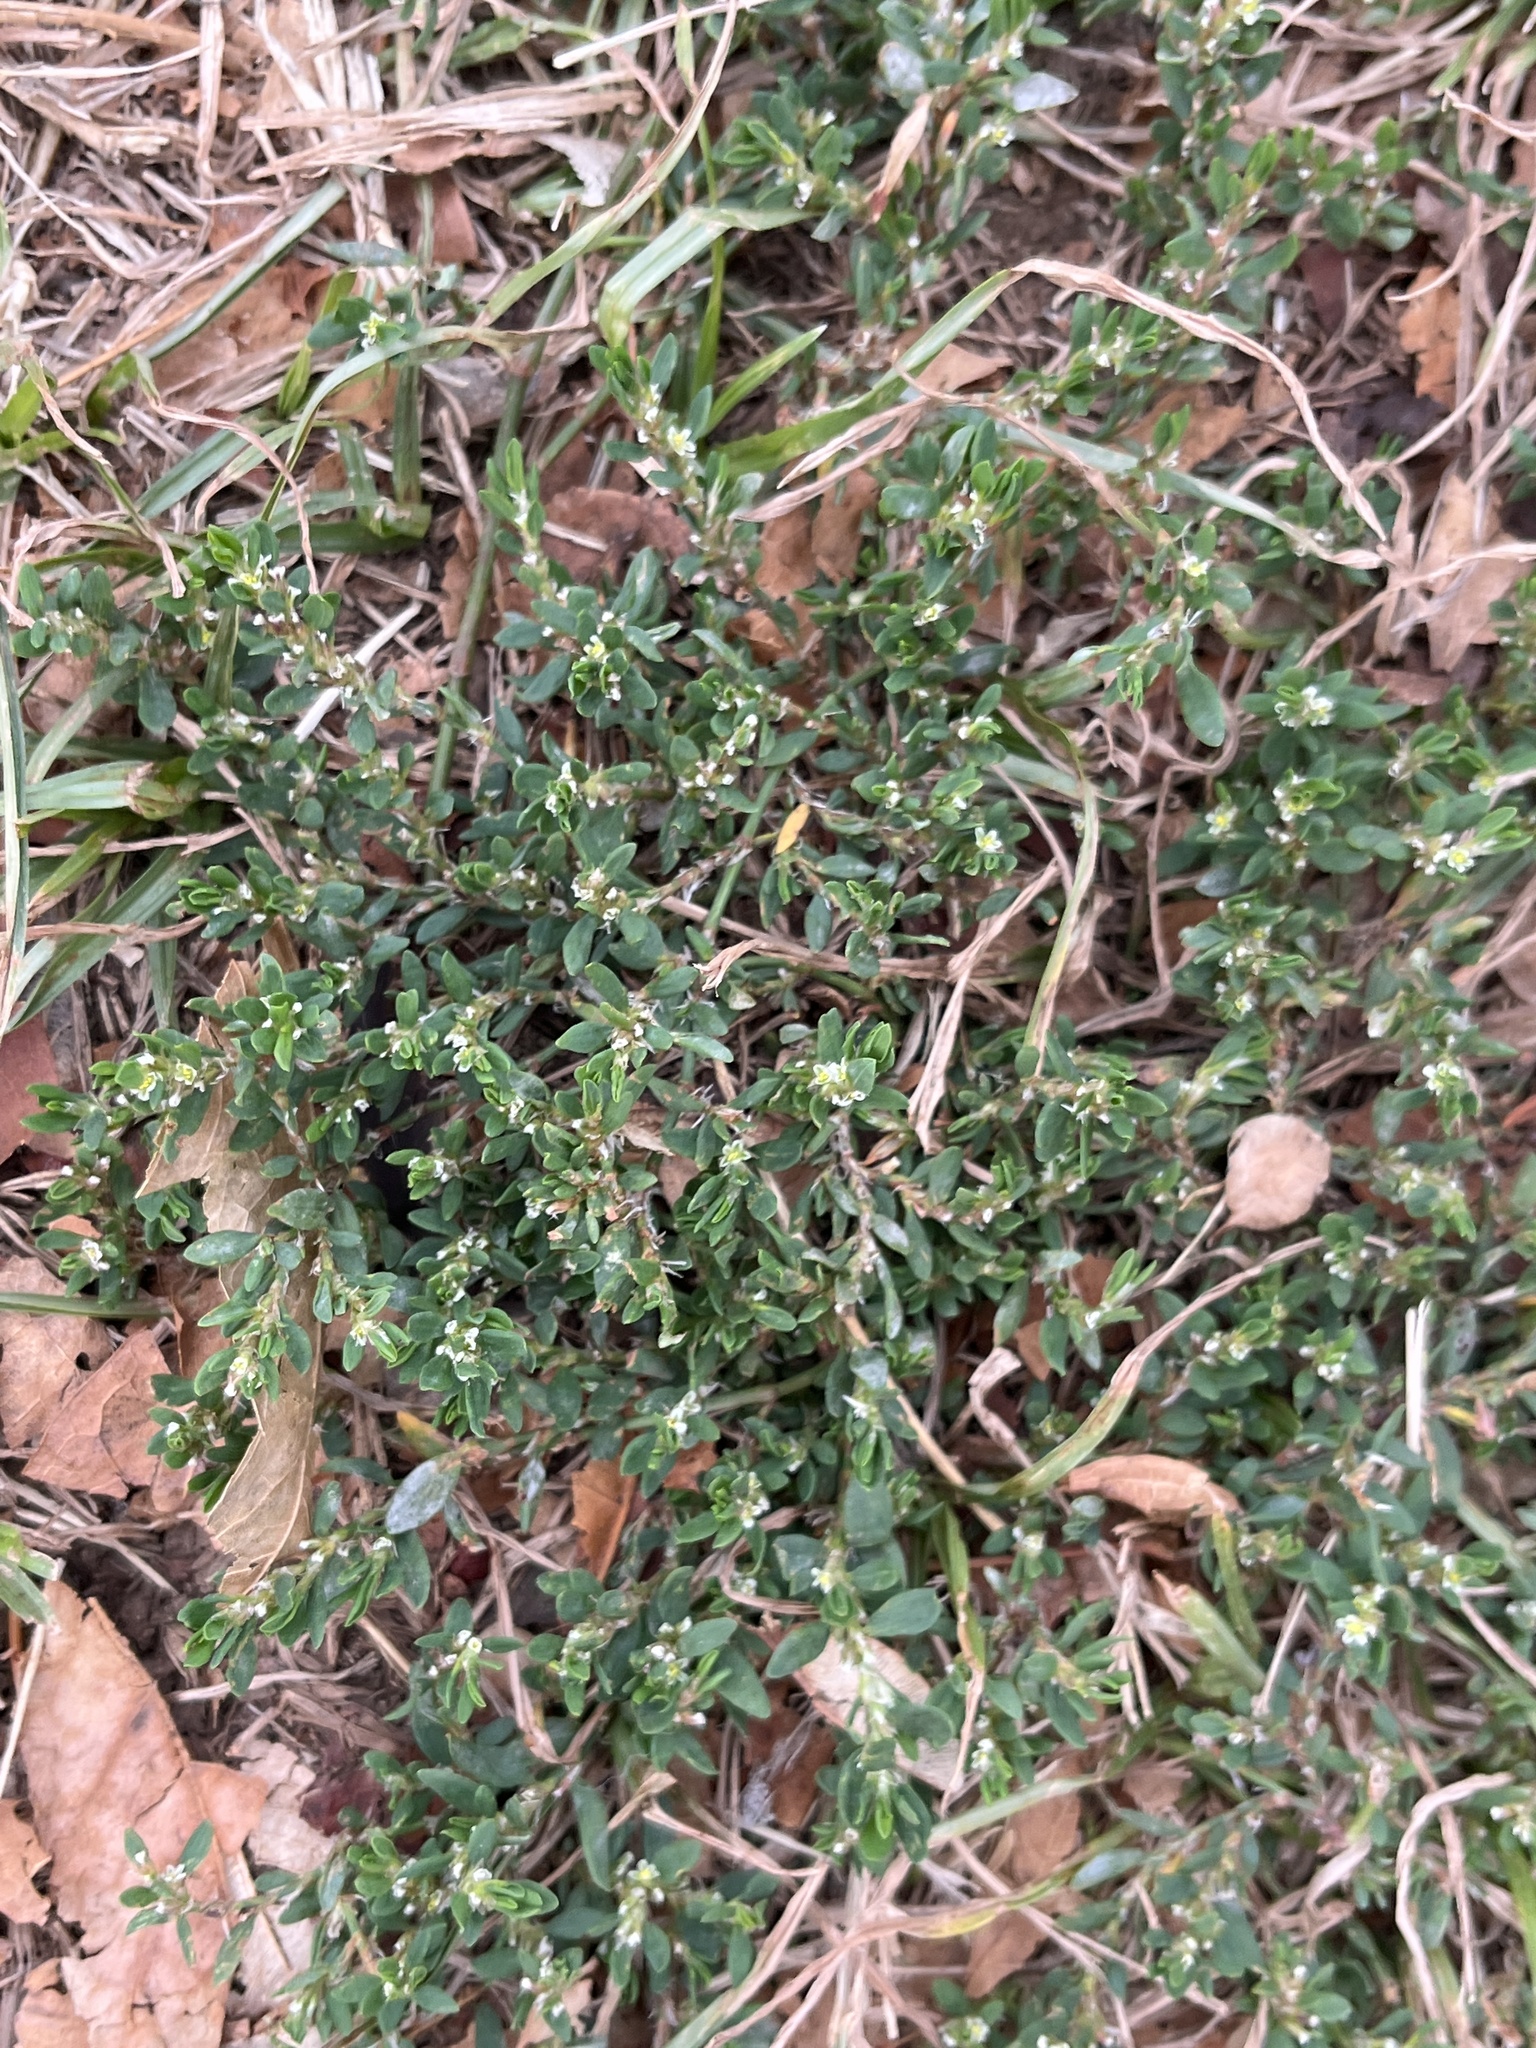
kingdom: Plantae
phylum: Tracheophyta
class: Magnoliopsida
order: Caryophyllales
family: Polygonaceae
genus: Polygonum
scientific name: Polygonum aviculare
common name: Prostrate knotweed
